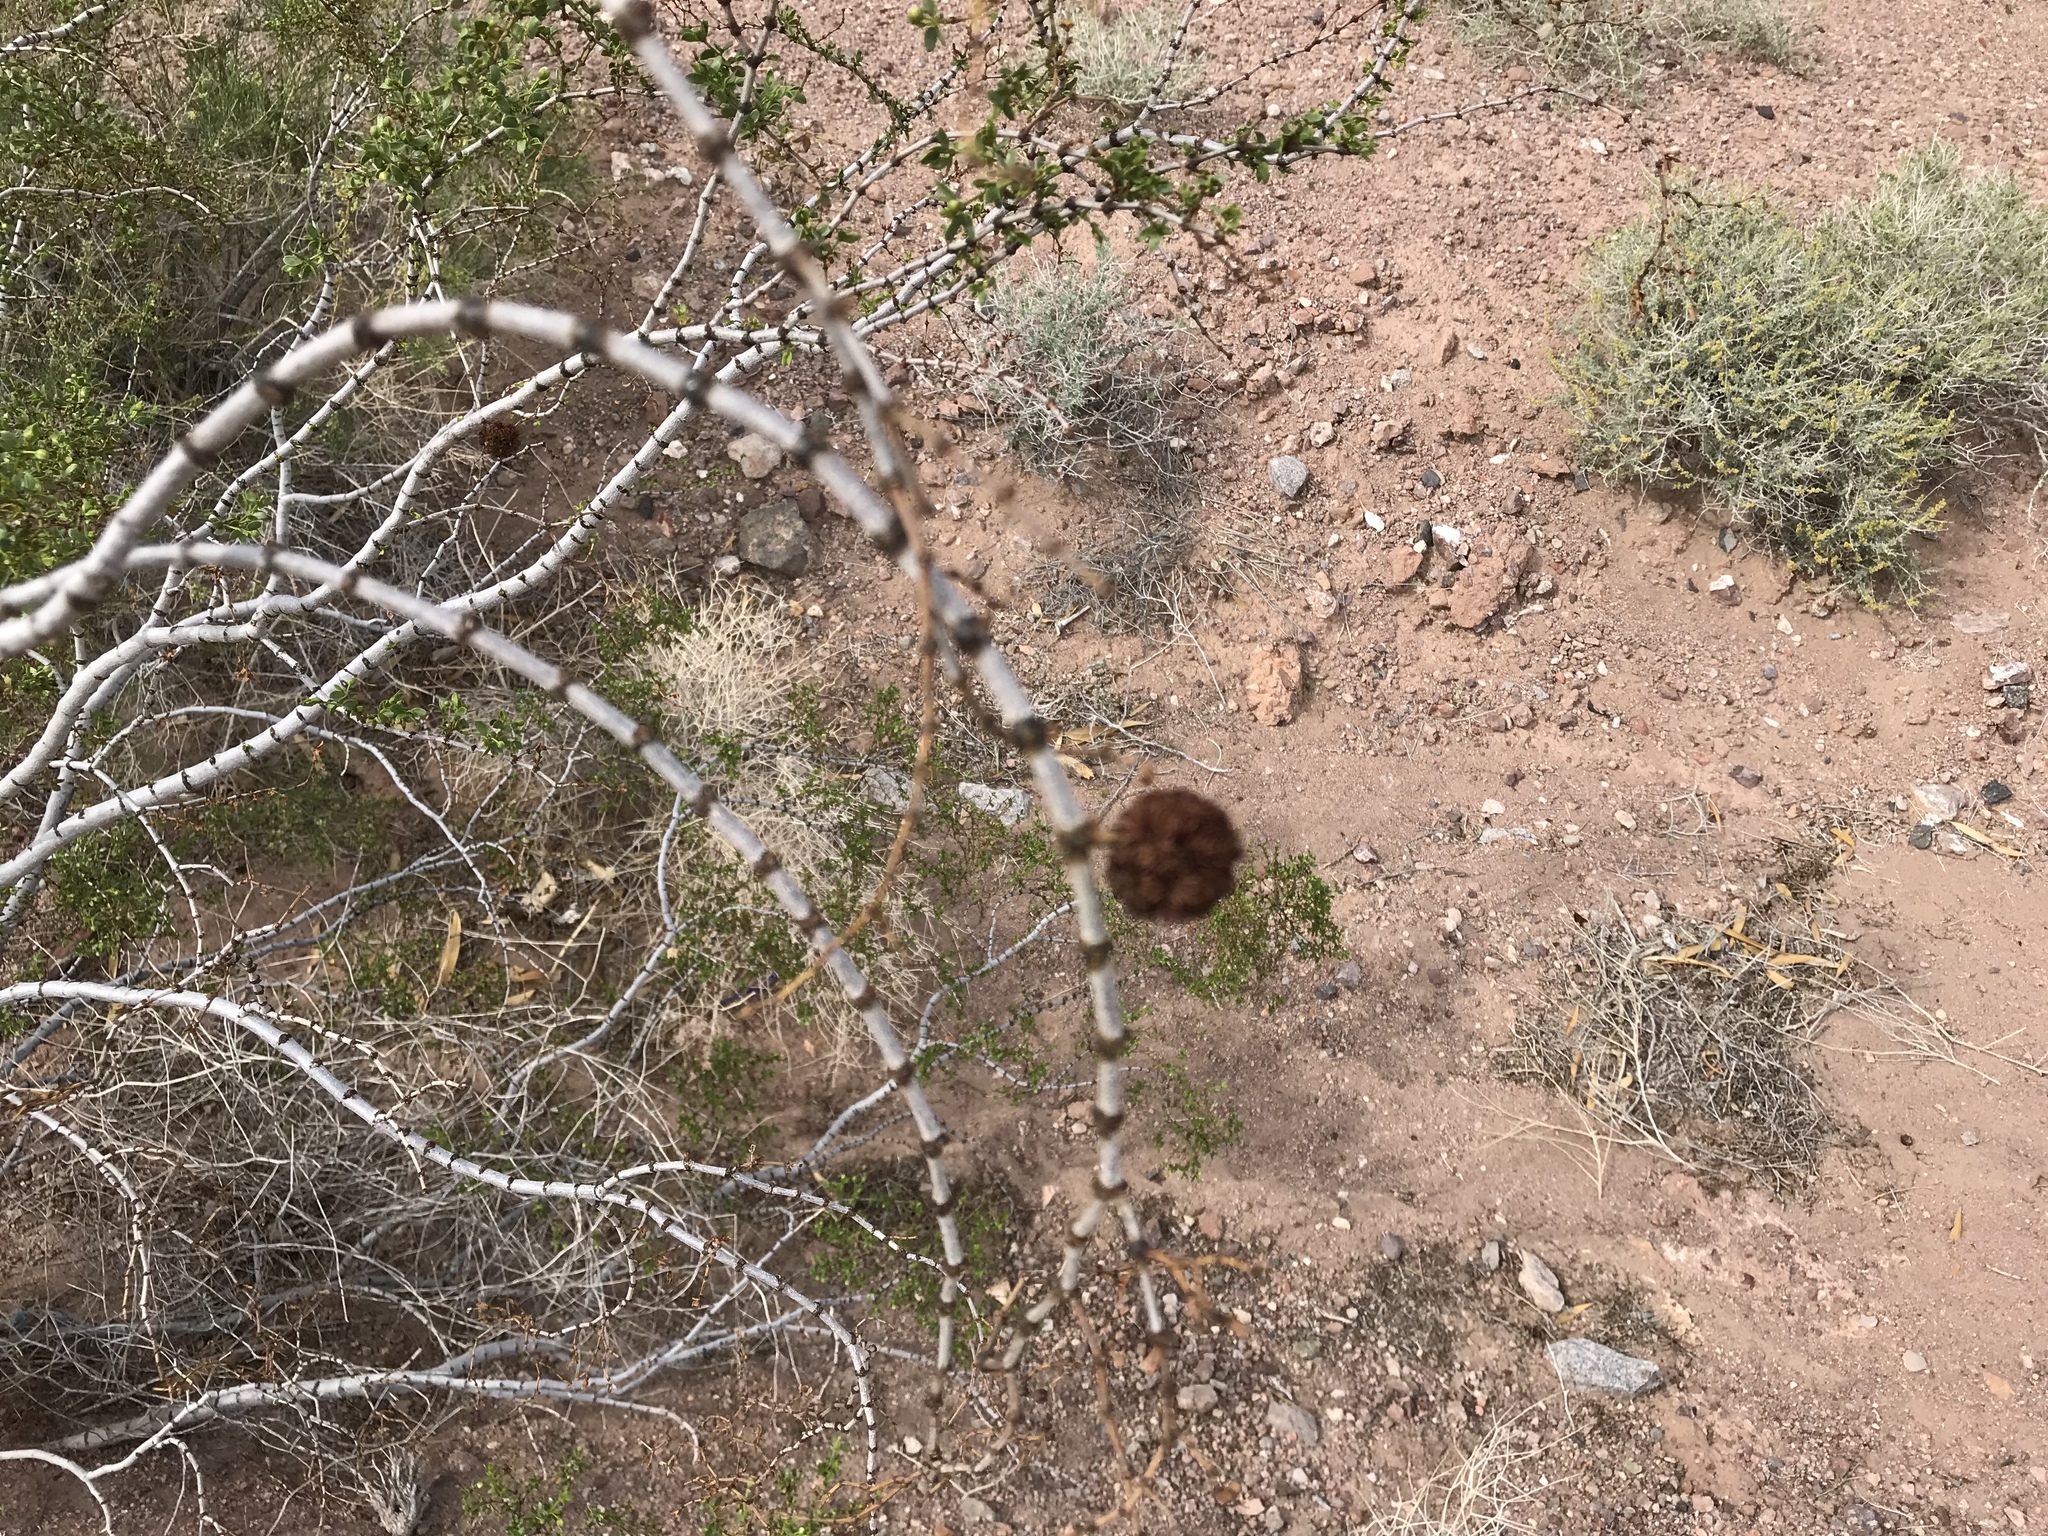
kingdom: Animalia
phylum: Arthropoda
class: Insecta
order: Diptera
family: Cecidomyiidae
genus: Asphondylia
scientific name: Asphondylia auripila
